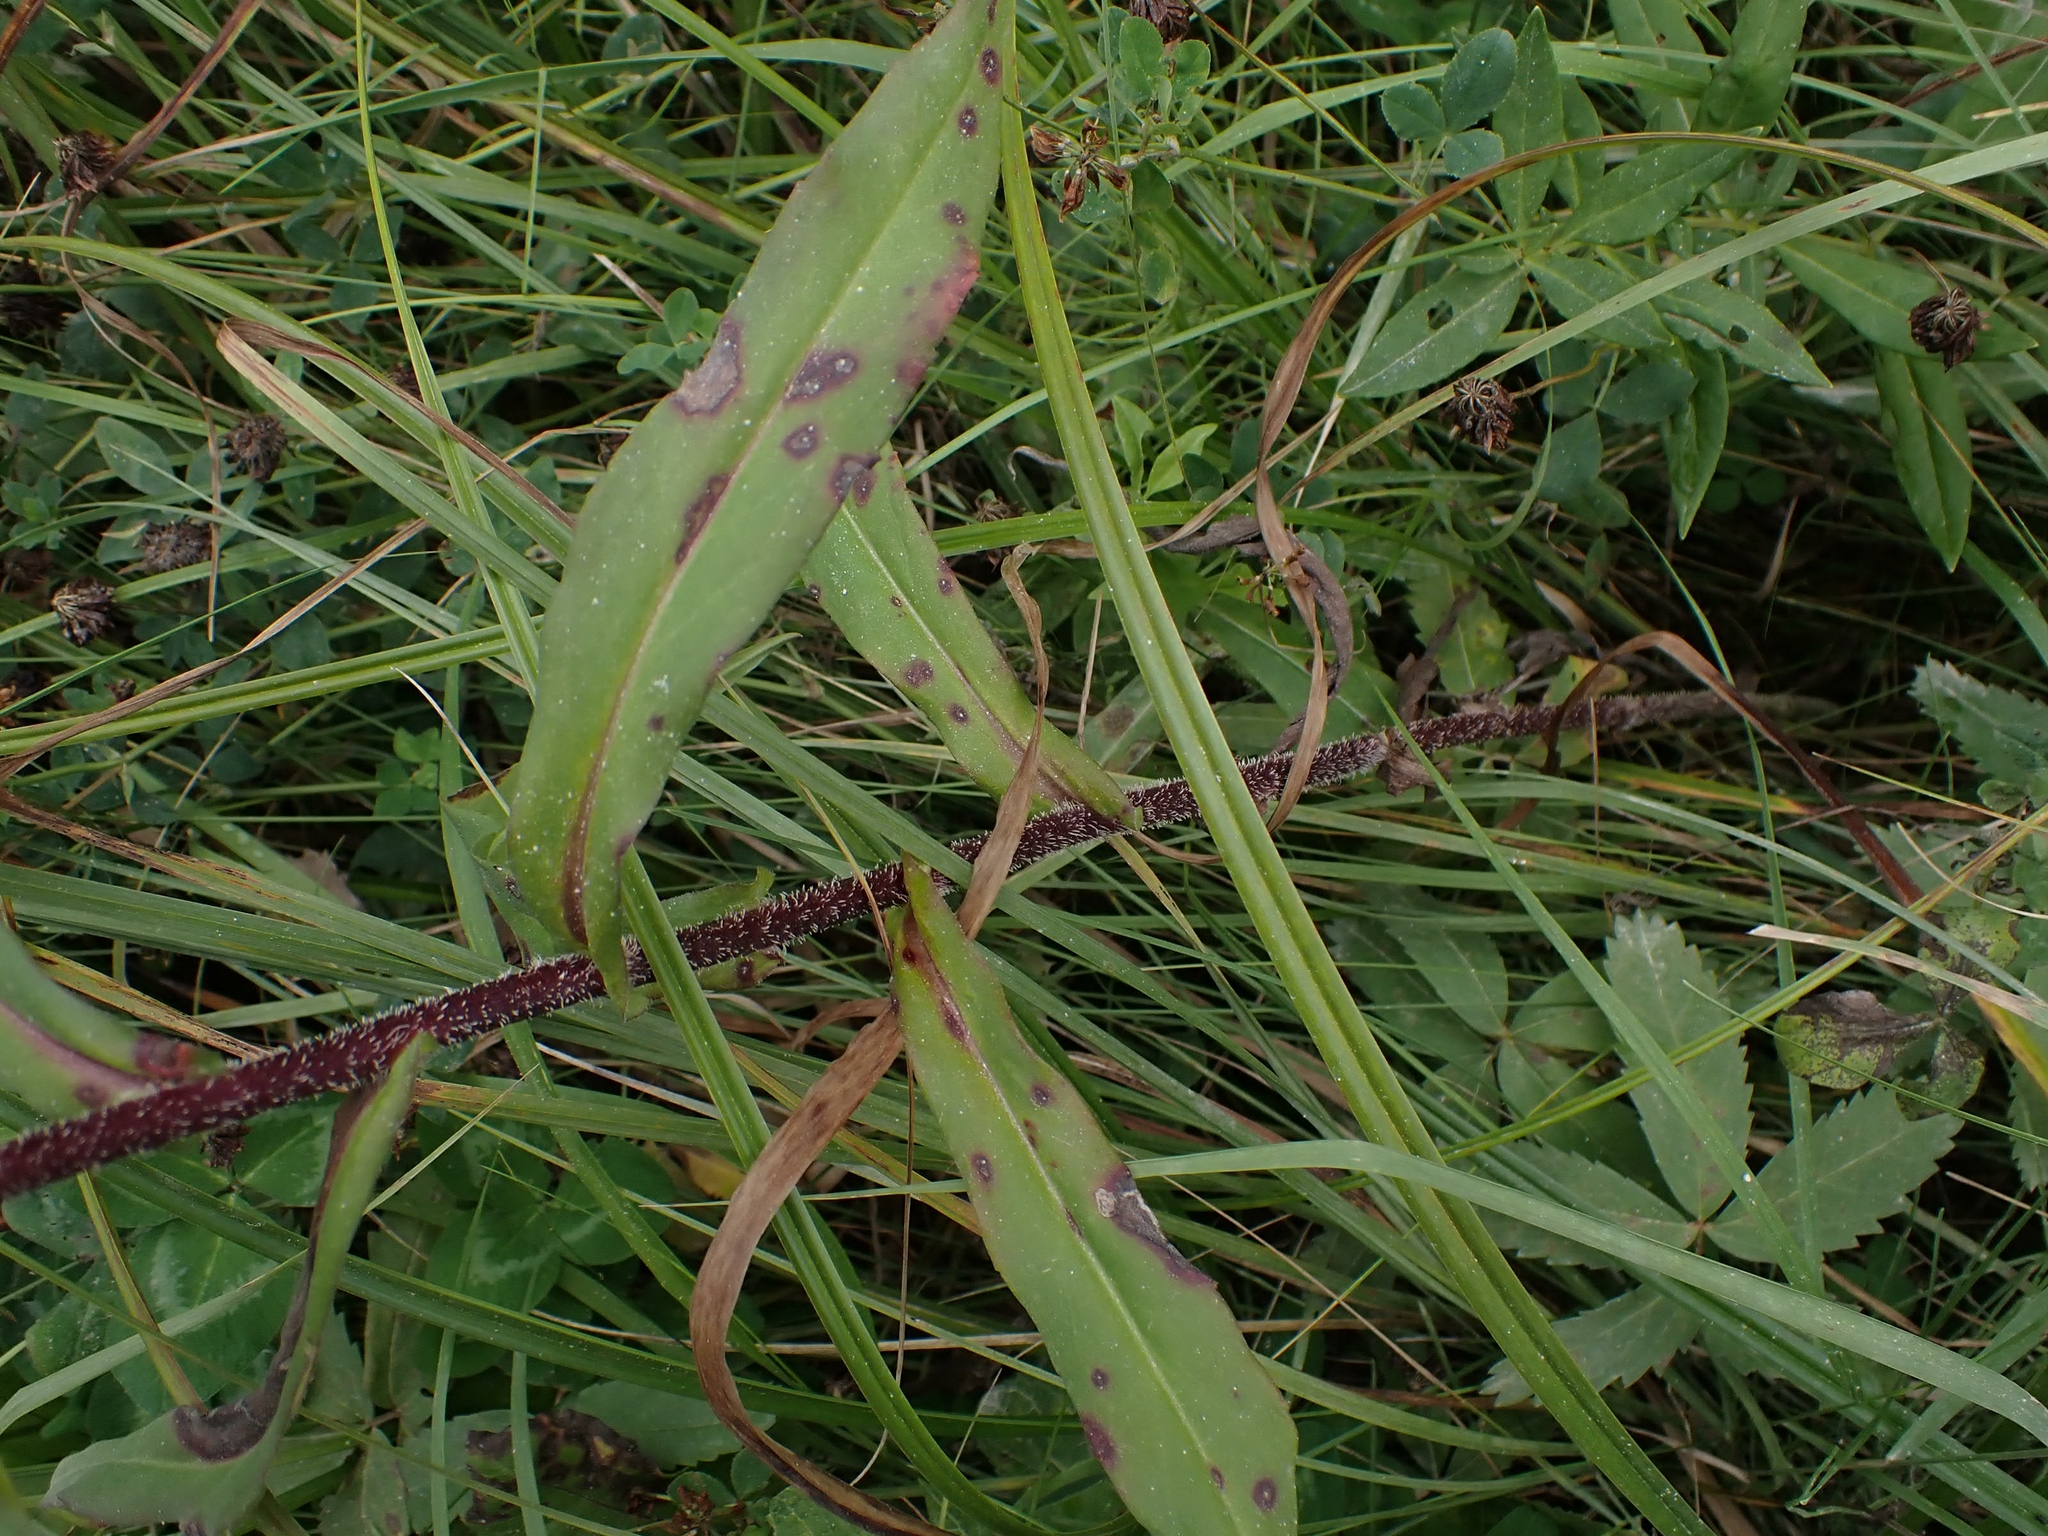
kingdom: Plantae
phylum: Tracheophyta
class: Magnoliopsida
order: Asterales
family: Asteraceae
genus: Symphyotrichum
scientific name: Symphyotrichum puniceum
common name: Bog aster
